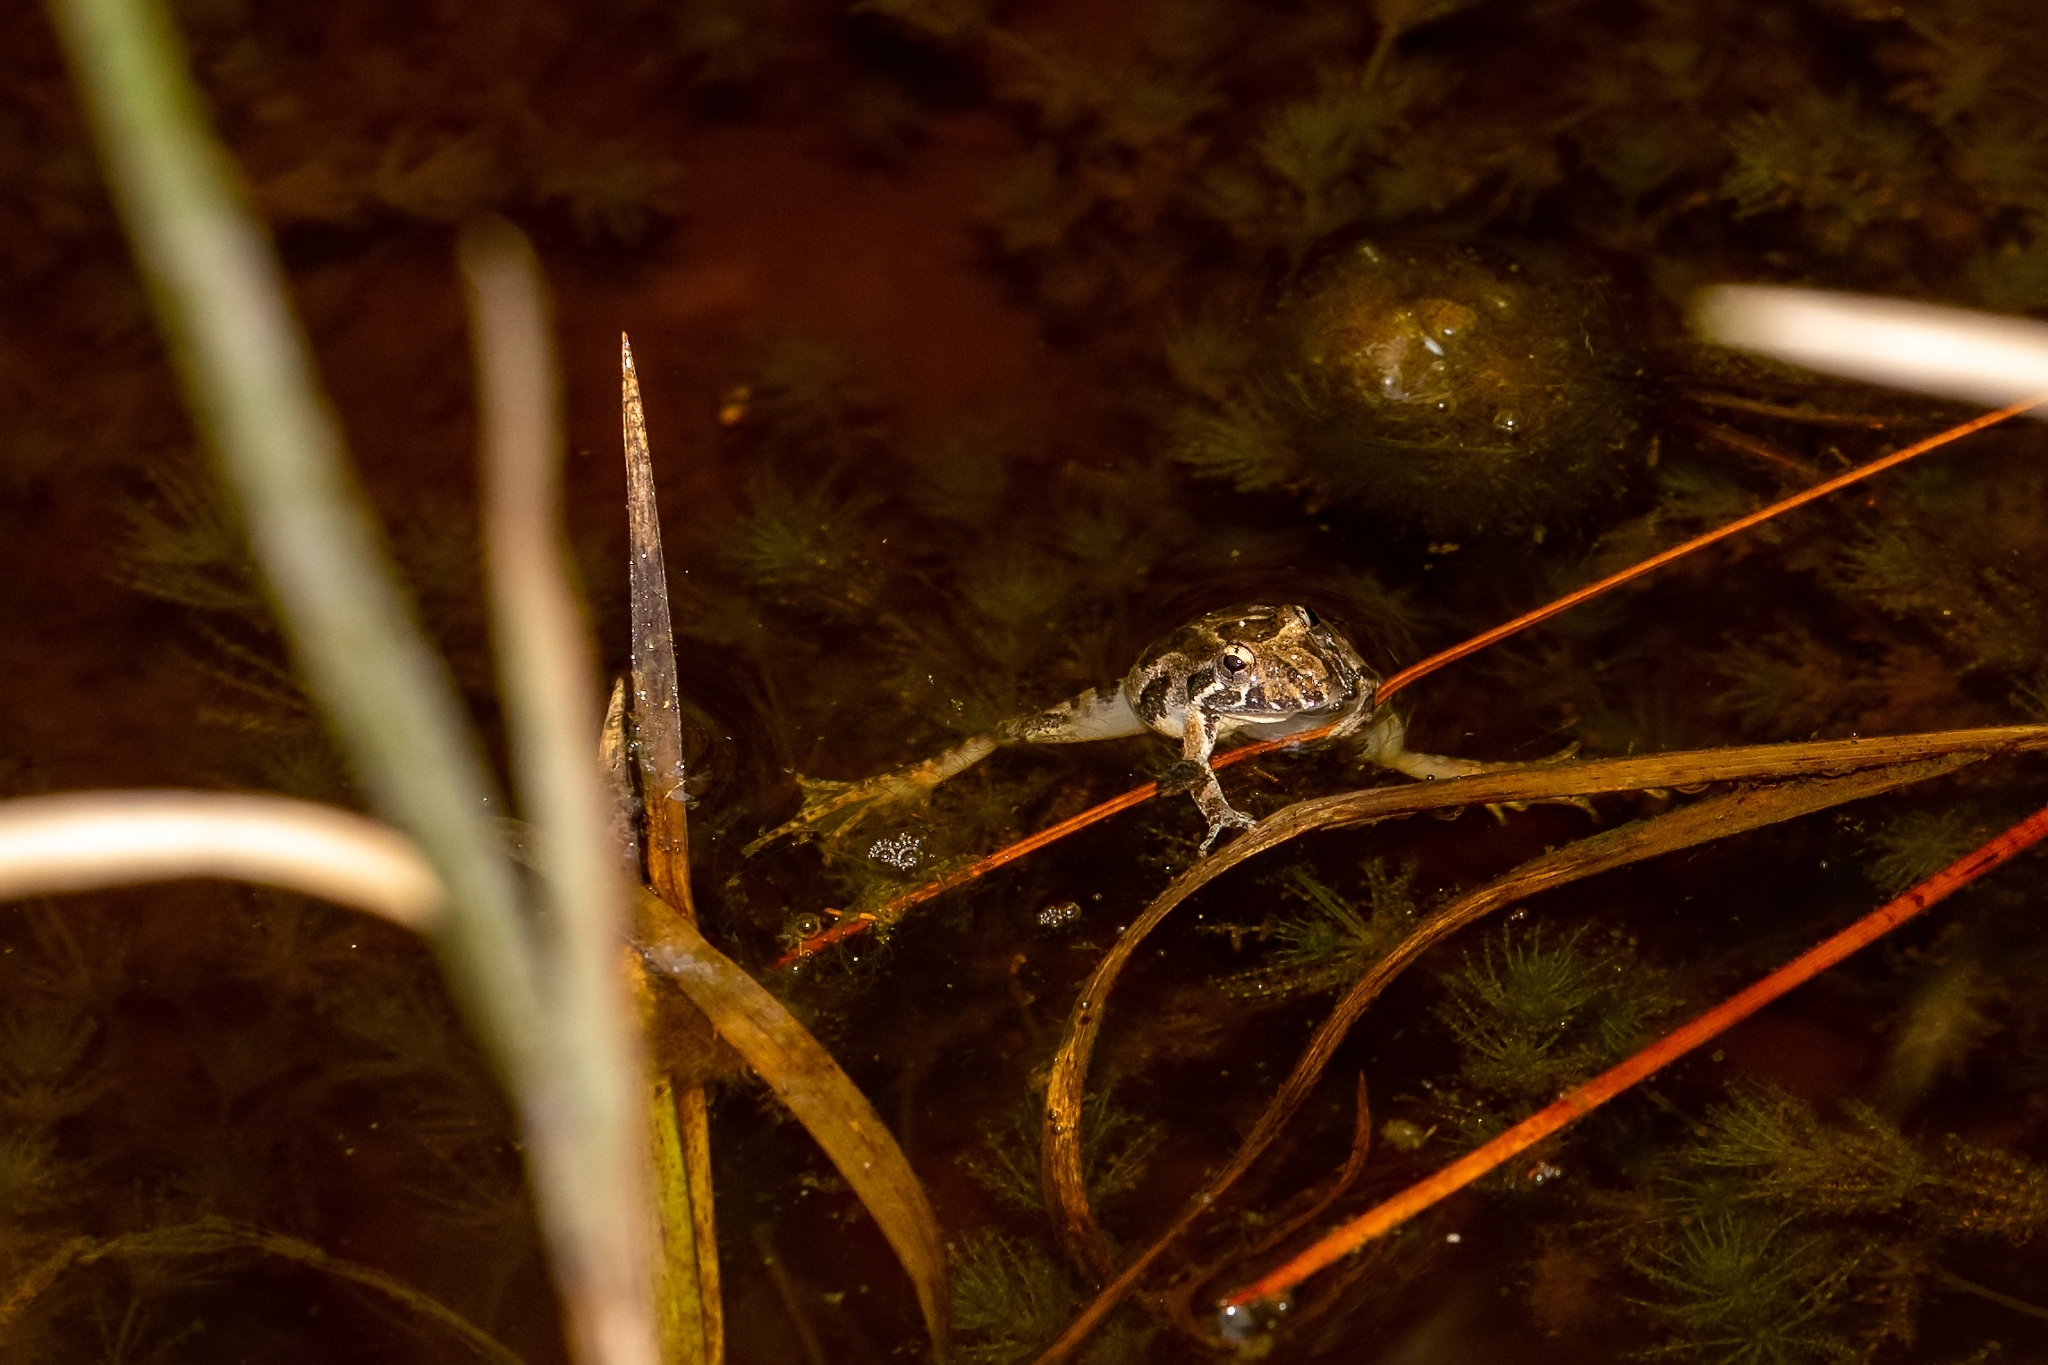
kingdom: Animalia
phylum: Chordata
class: Amphibia
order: Anura
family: Bufonidae
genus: Anaxyrus
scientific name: Anaxyrus terrestris
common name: Southern toad
